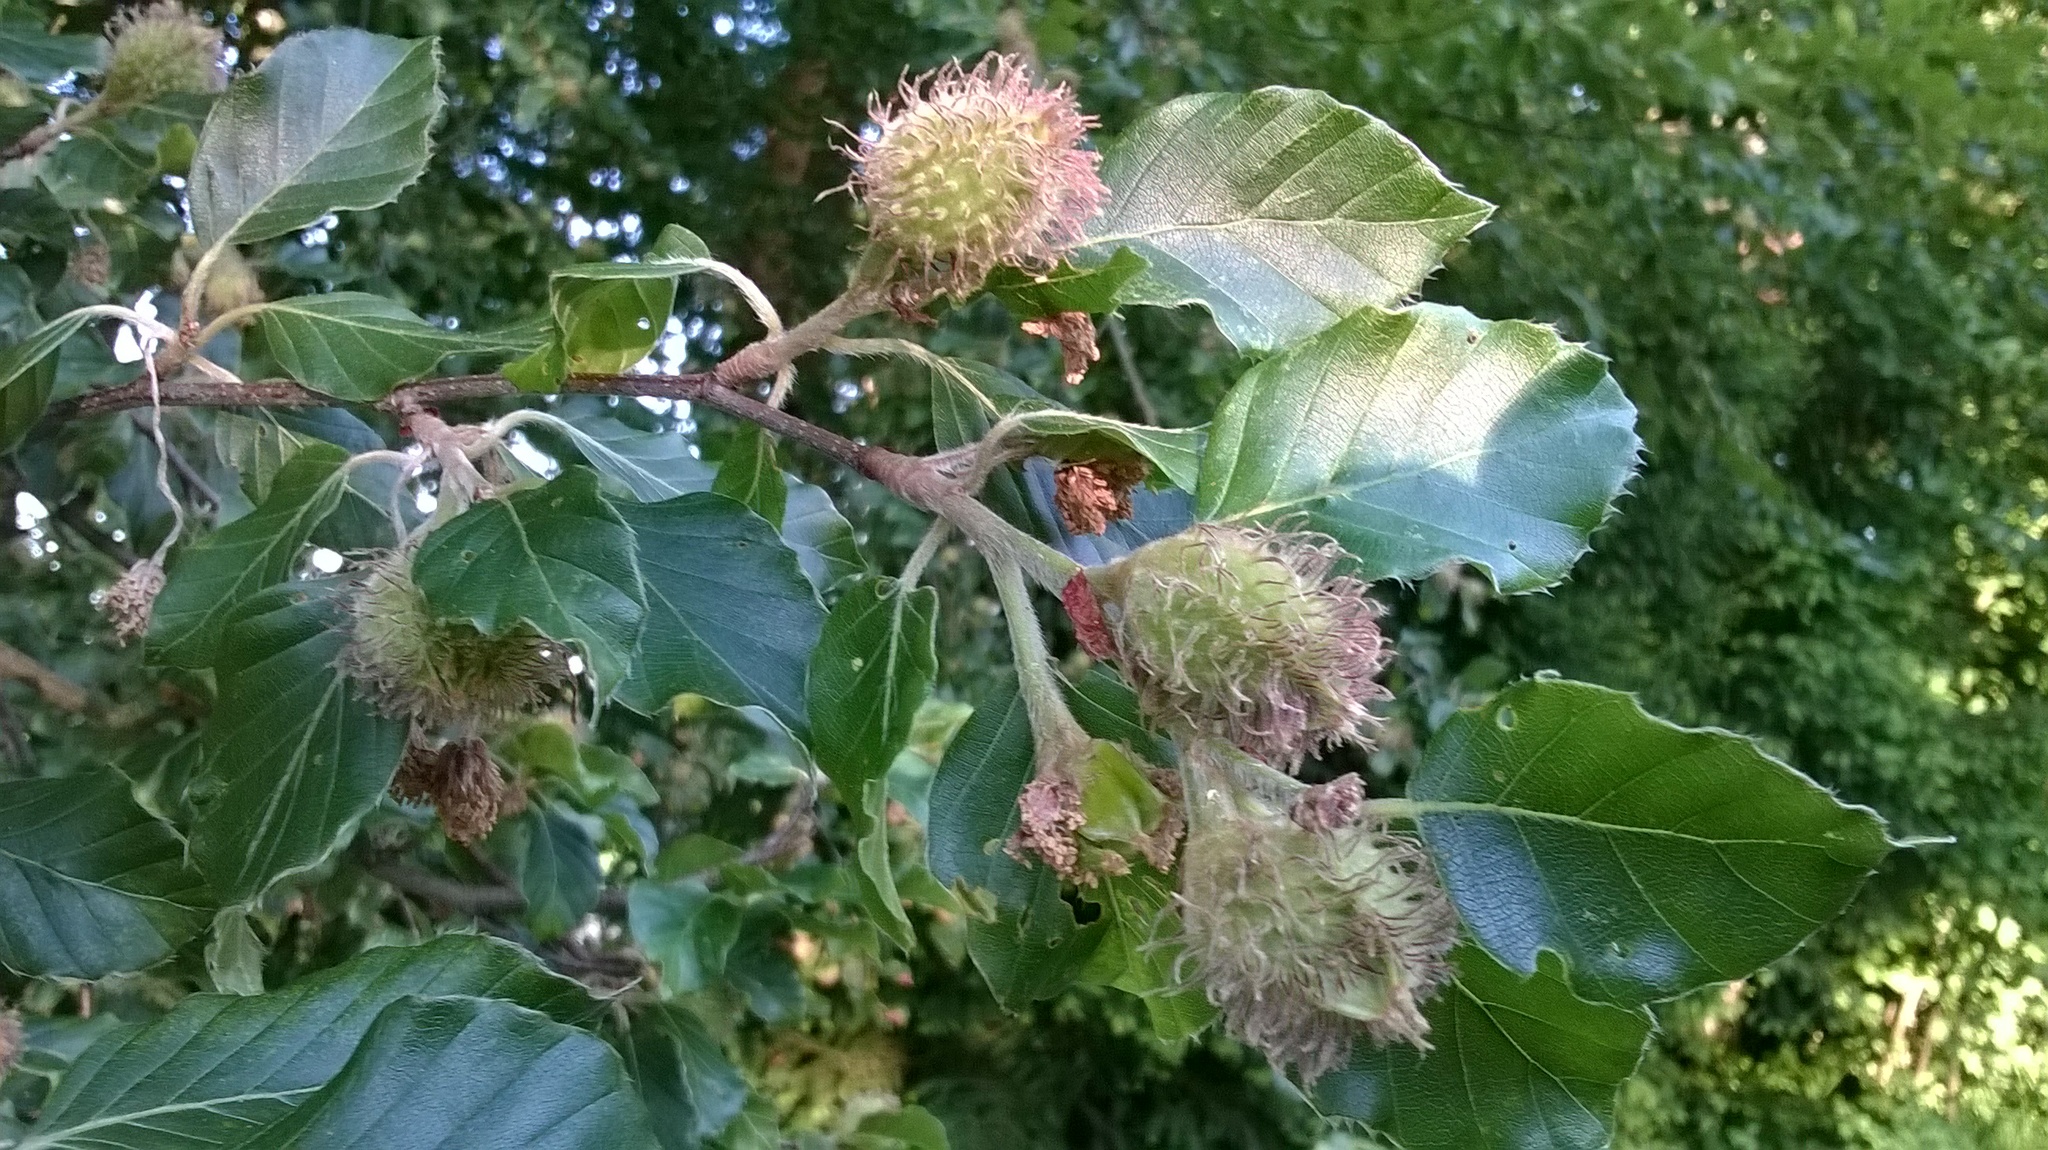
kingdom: Plantae
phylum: Tracheophyta
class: Magnoliopsida
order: Fagales
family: Fagaceae
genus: Fagus
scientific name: Fagus sylvatica
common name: Beech
